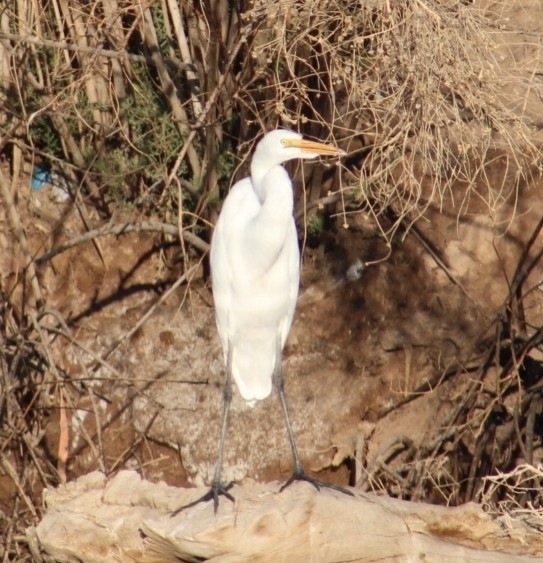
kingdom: Animalia
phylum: Chordata
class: Aves
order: Pelecaniformes
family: Ardeidae
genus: Ardea
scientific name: Ardea alba
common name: Great egret
